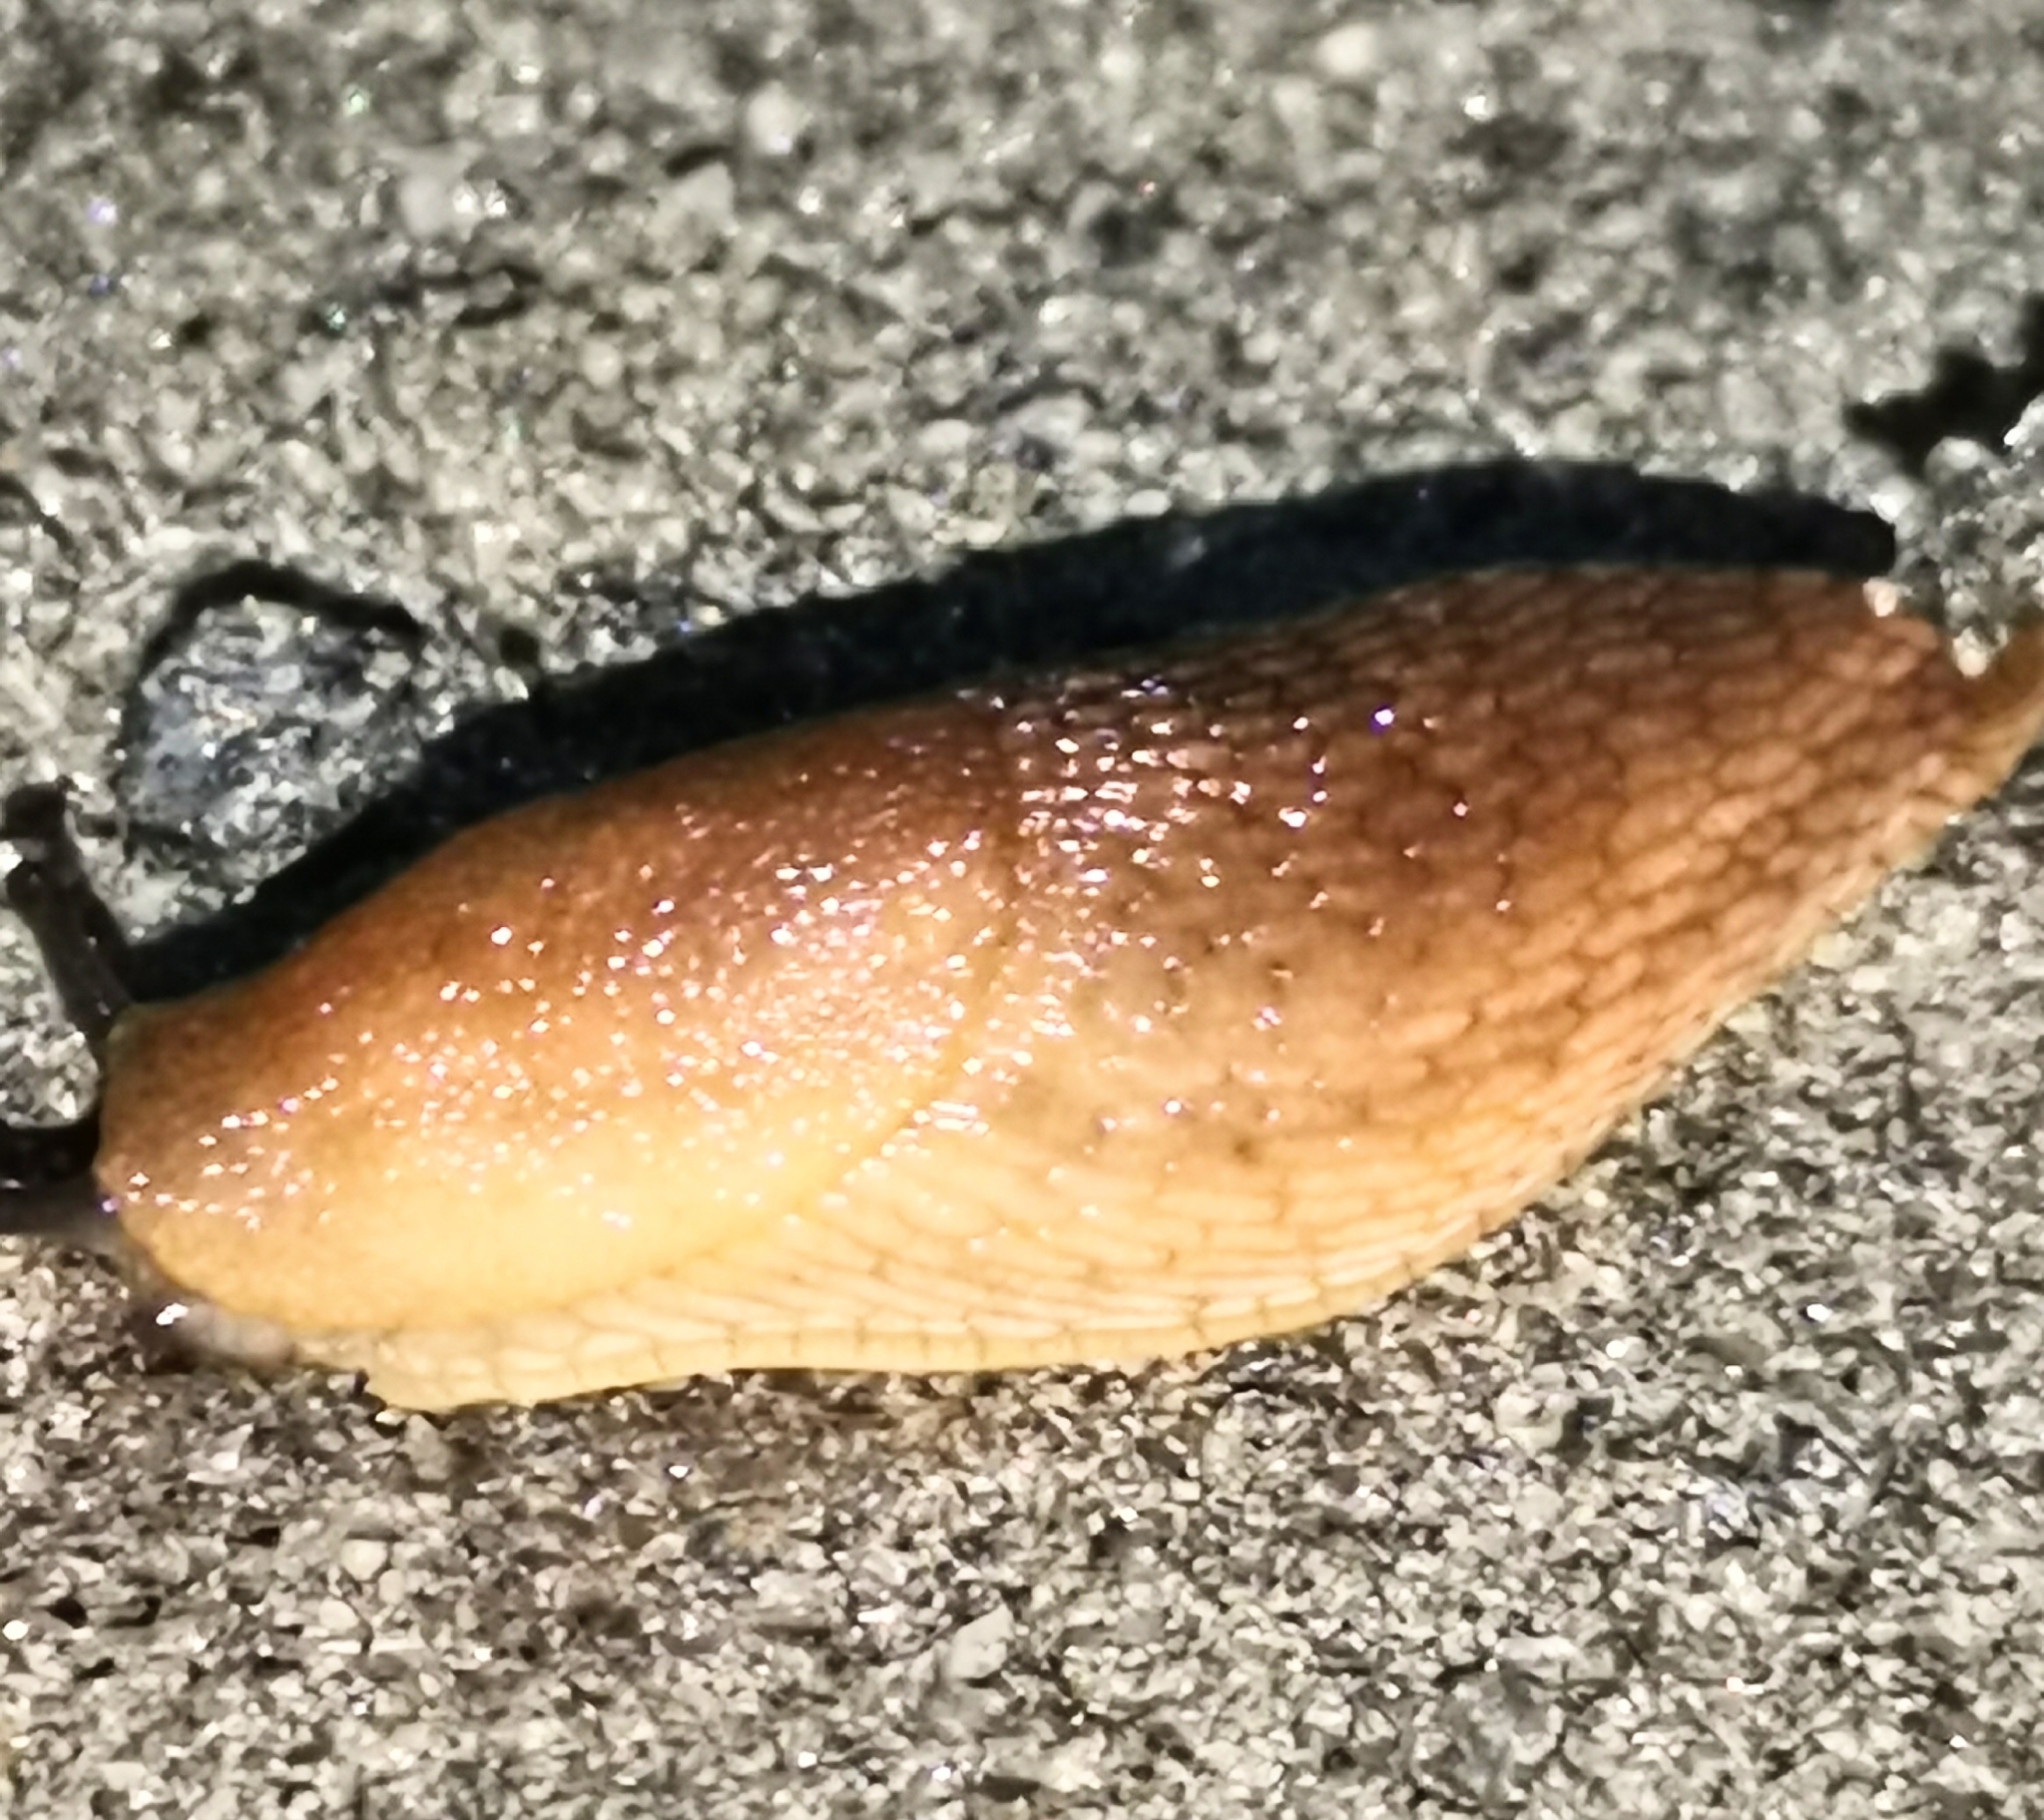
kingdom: Animalia
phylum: Mollusca
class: Gastropoda
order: Stylommatophora
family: Arionidae
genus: Arion
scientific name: Arion fuscus
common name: Northern dusky slug
